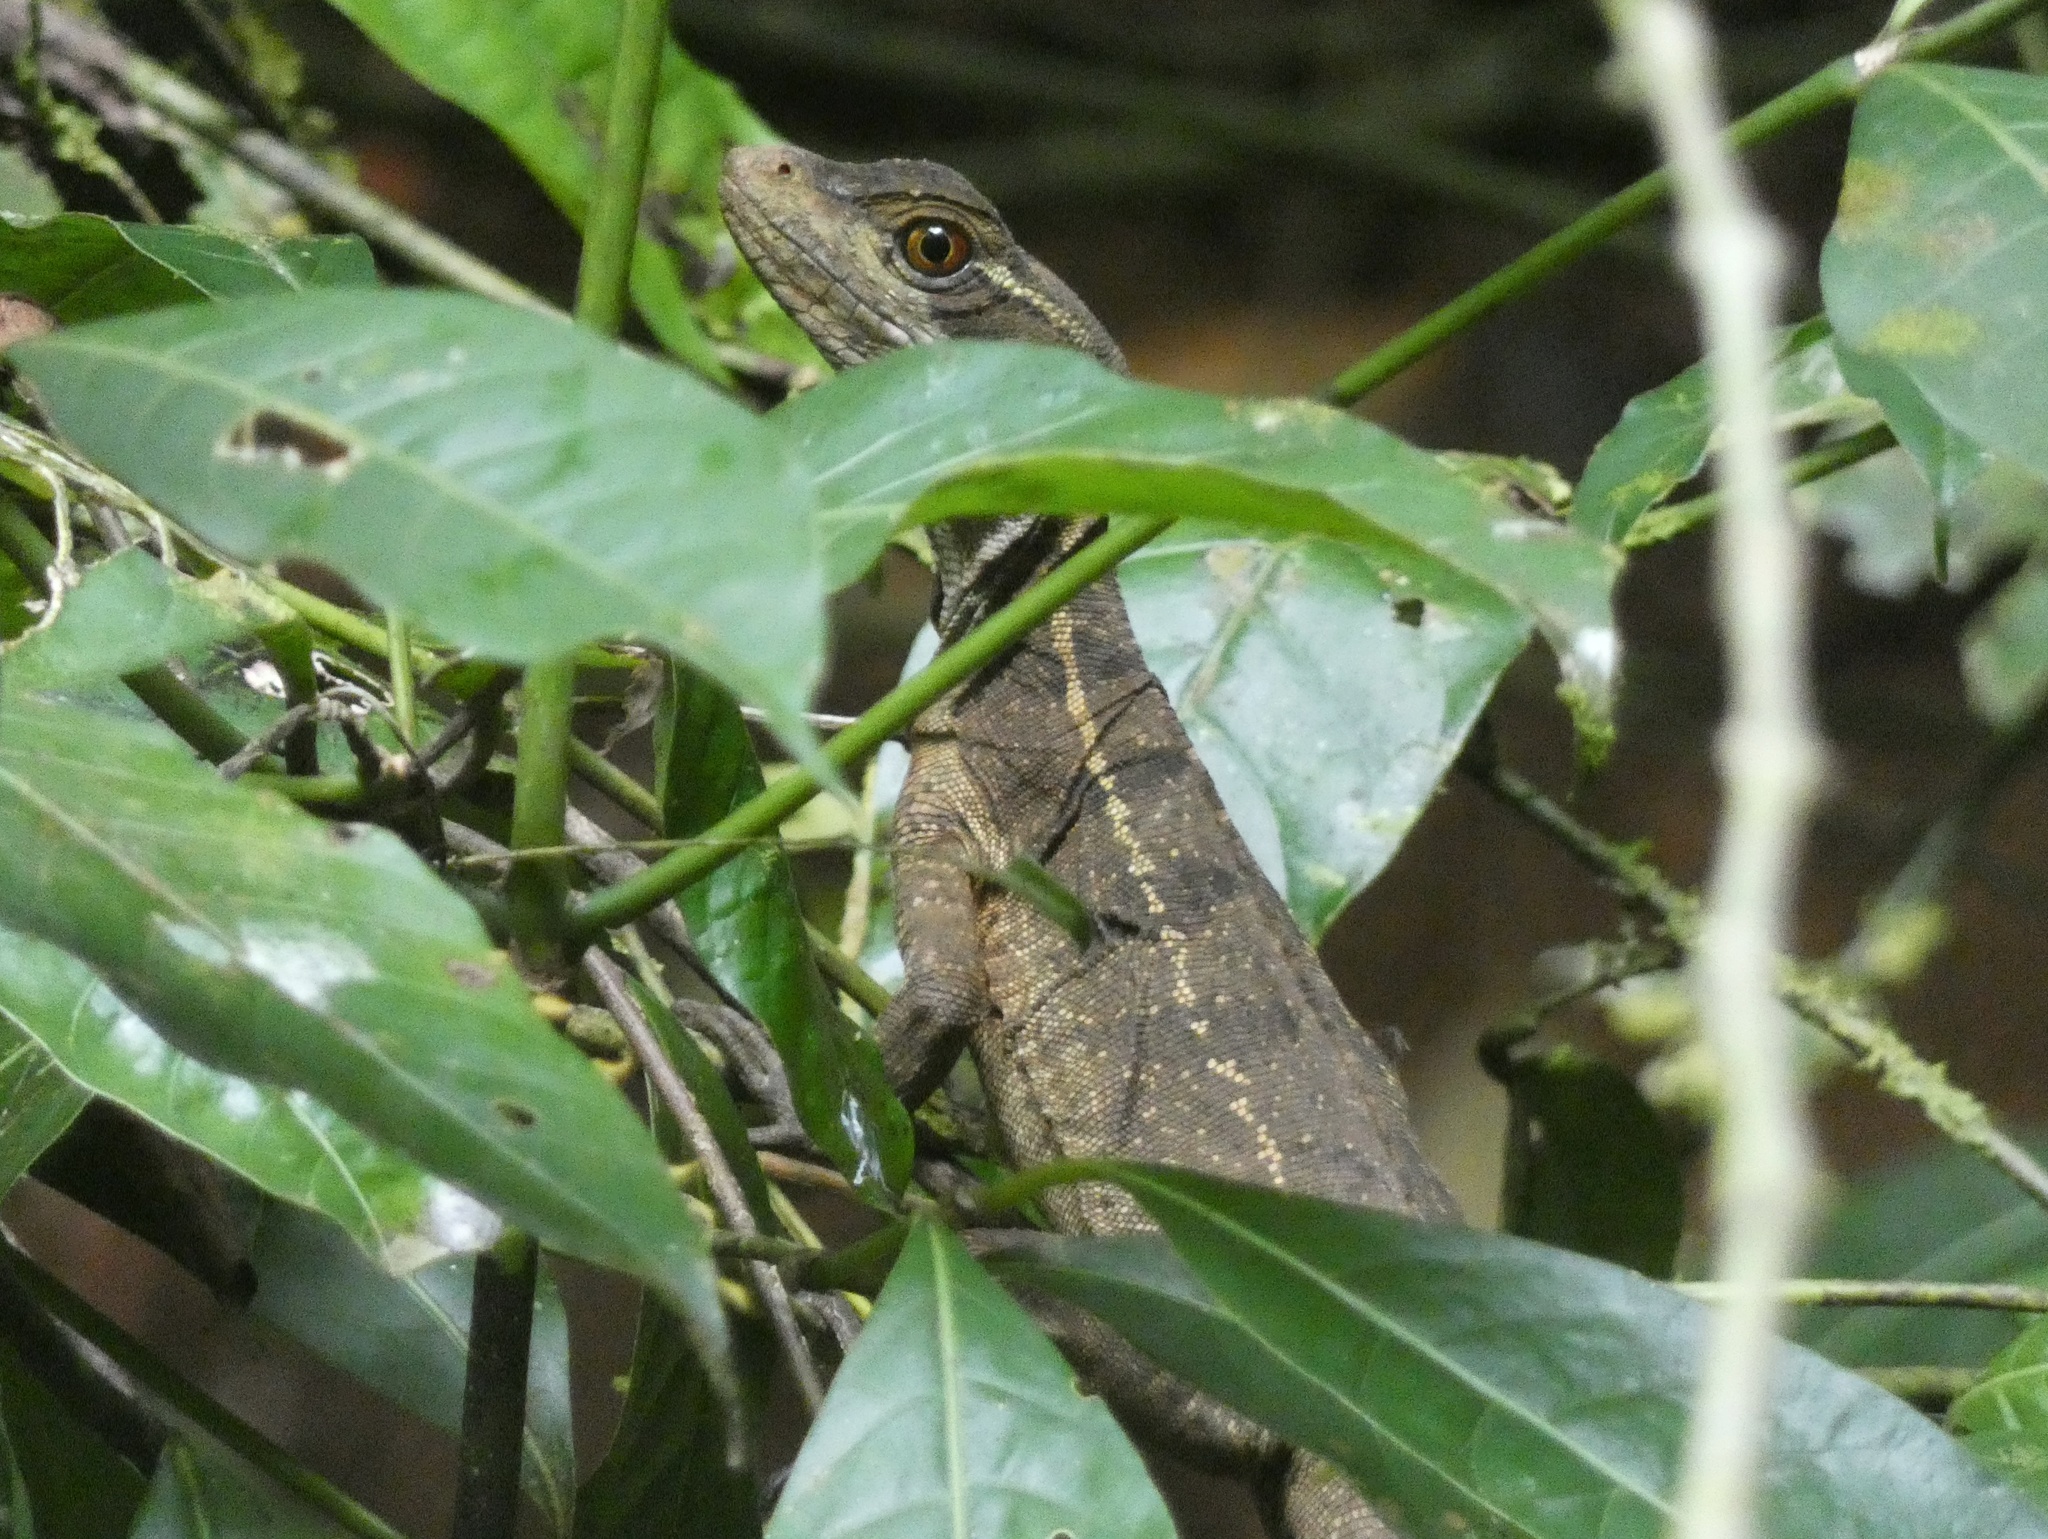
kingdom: Animalia
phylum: Chordata
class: Squamata
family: Corytophanidae
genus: Basiliscus
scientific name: Basiliscus basiliscus
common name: Common basilisk
